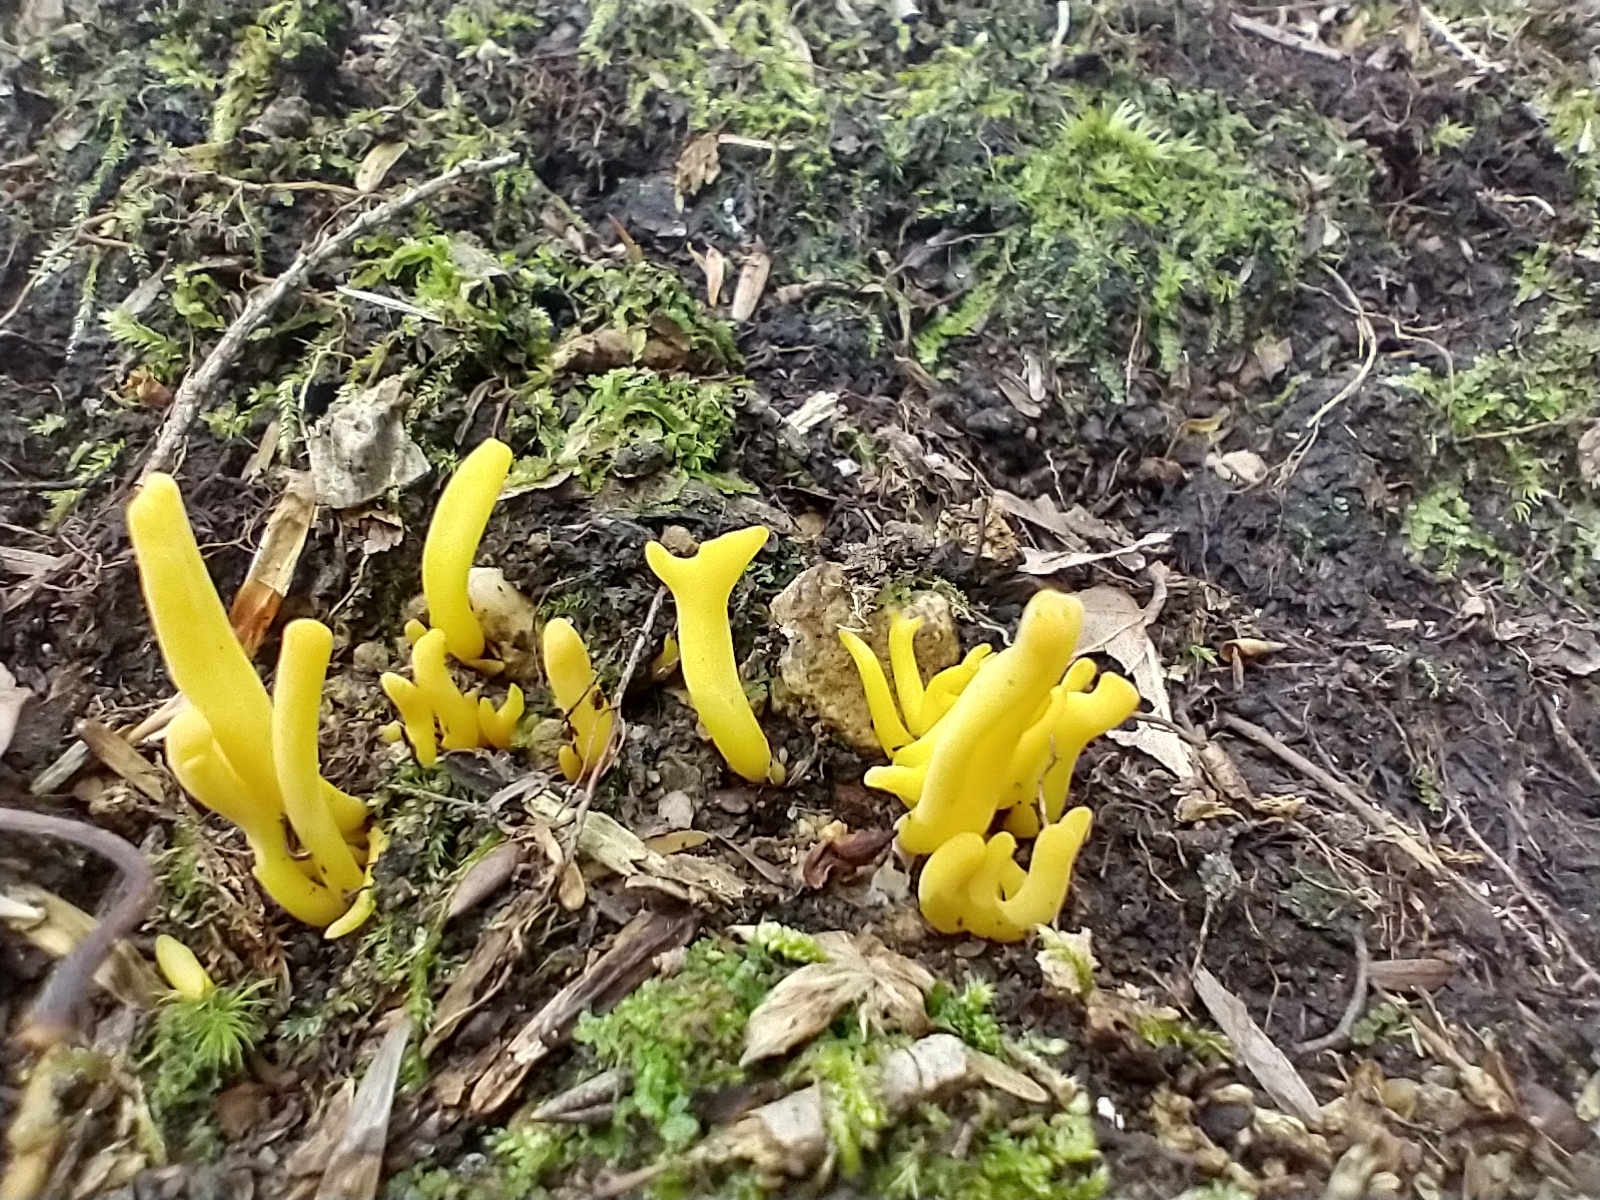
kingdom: Fungi
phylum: Basidiomycota
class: Agaricomycetes
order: Agaricales
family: Clavariaceae
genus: Clavulinopsis
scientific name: Clavulinopsis fusiformis
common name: Golden spindles
